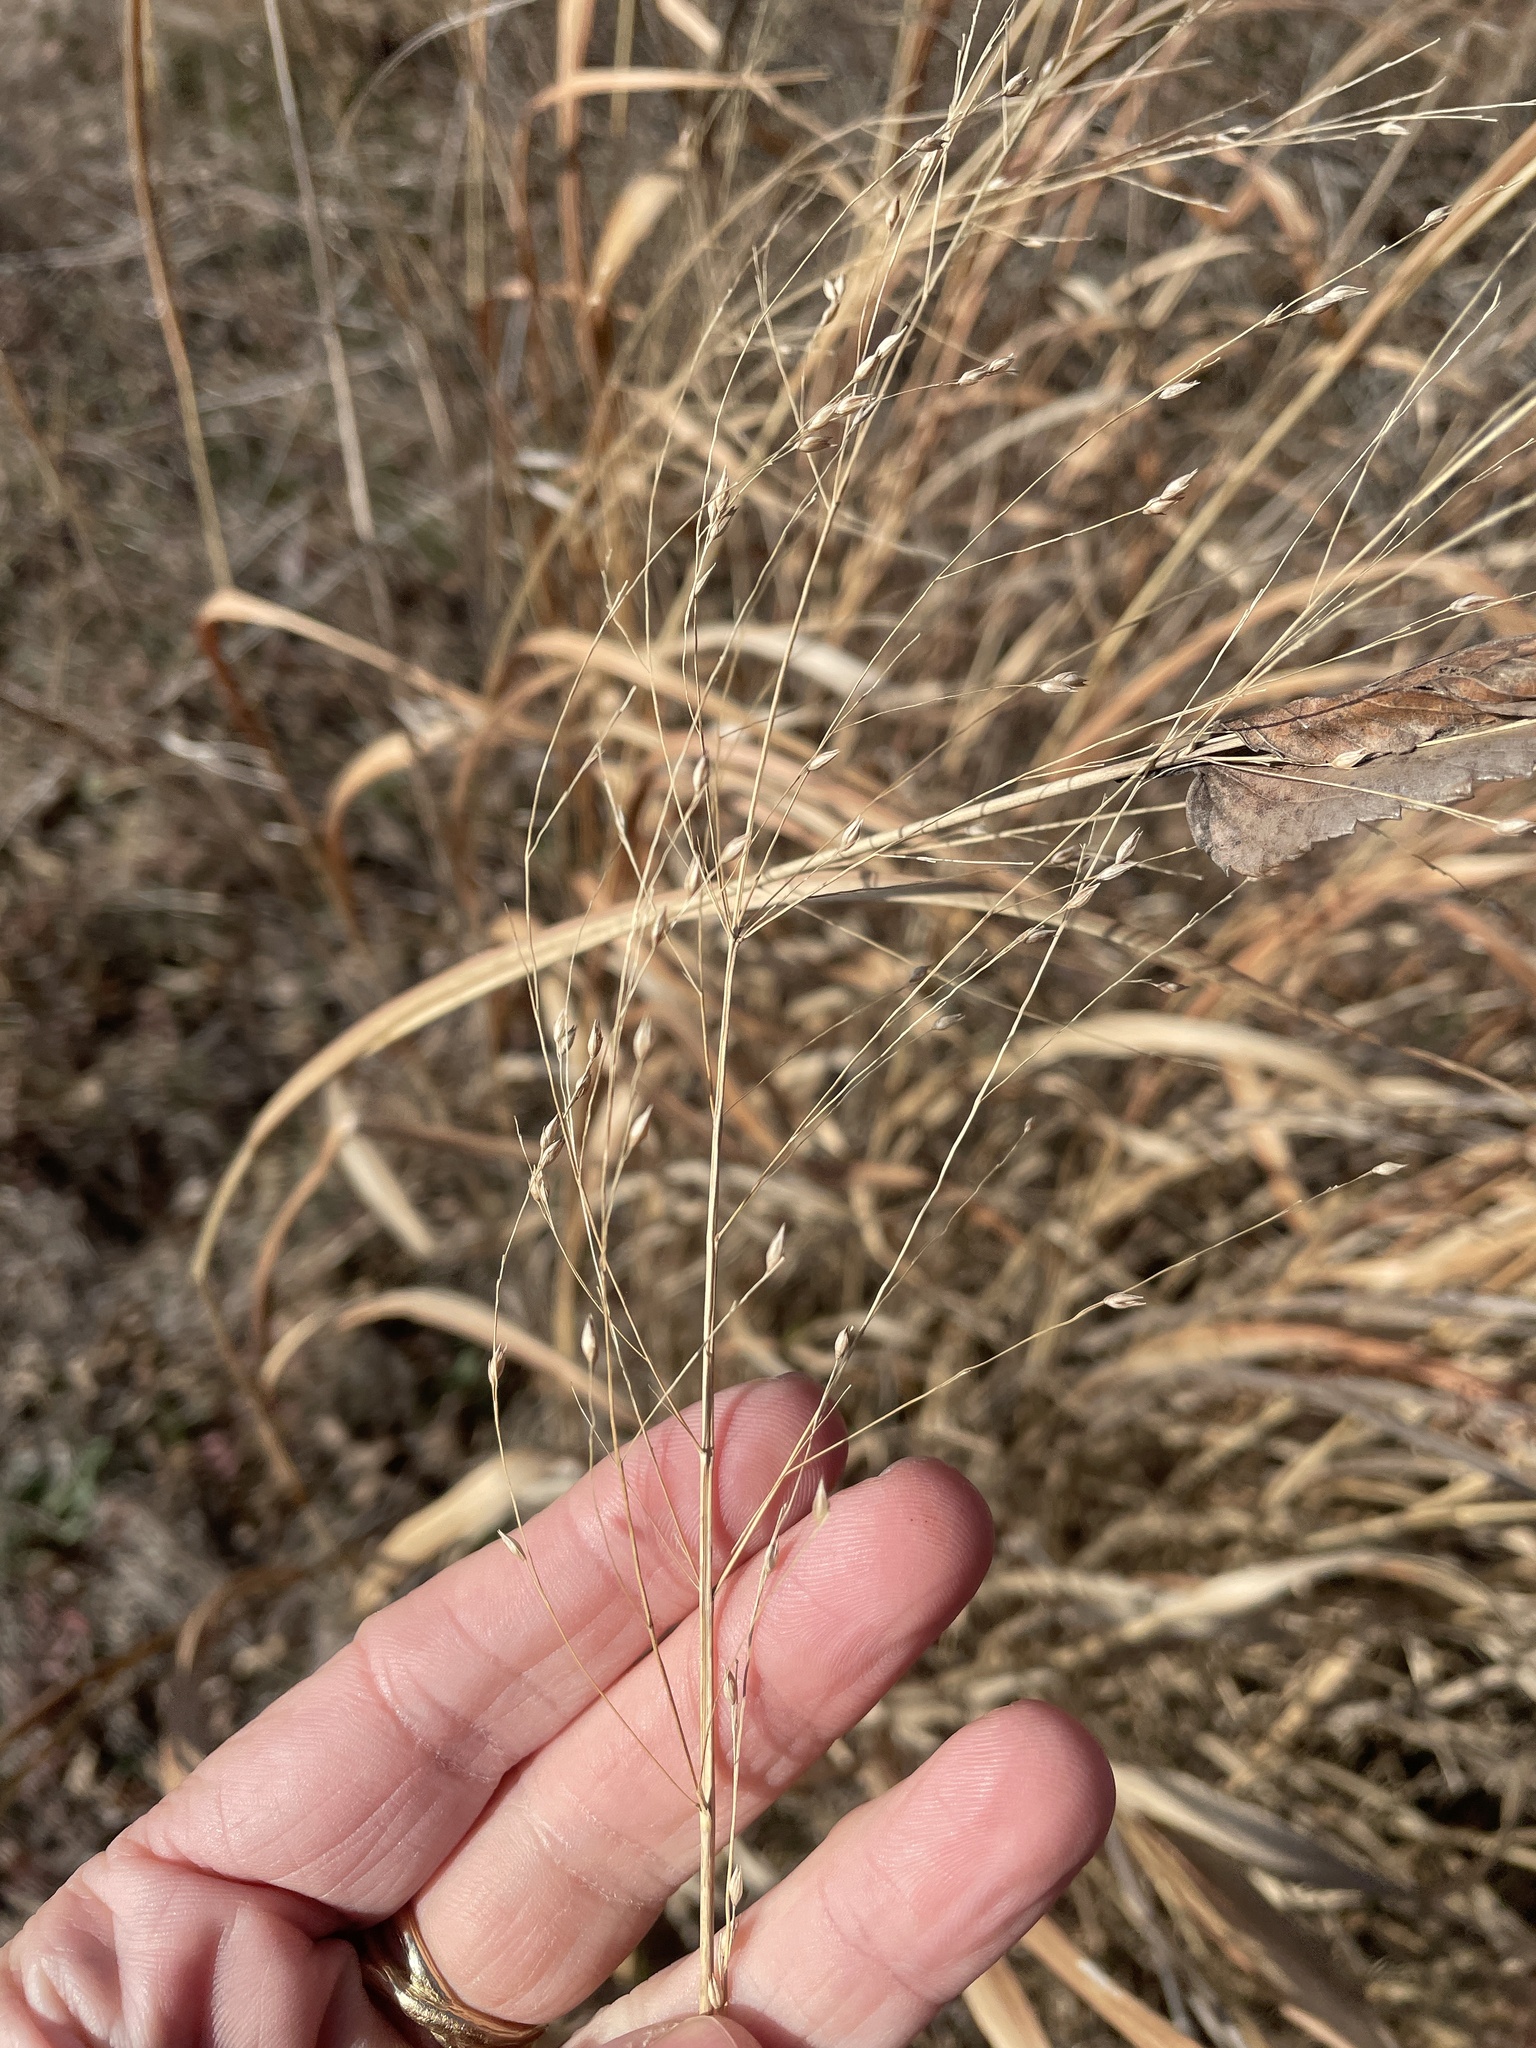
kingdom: Plantae
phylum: Tracheophyta
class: Liliopsida
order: Poales
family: Poaceae
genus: Panicum
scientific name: Panicum virgatum
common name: Switchgrass
